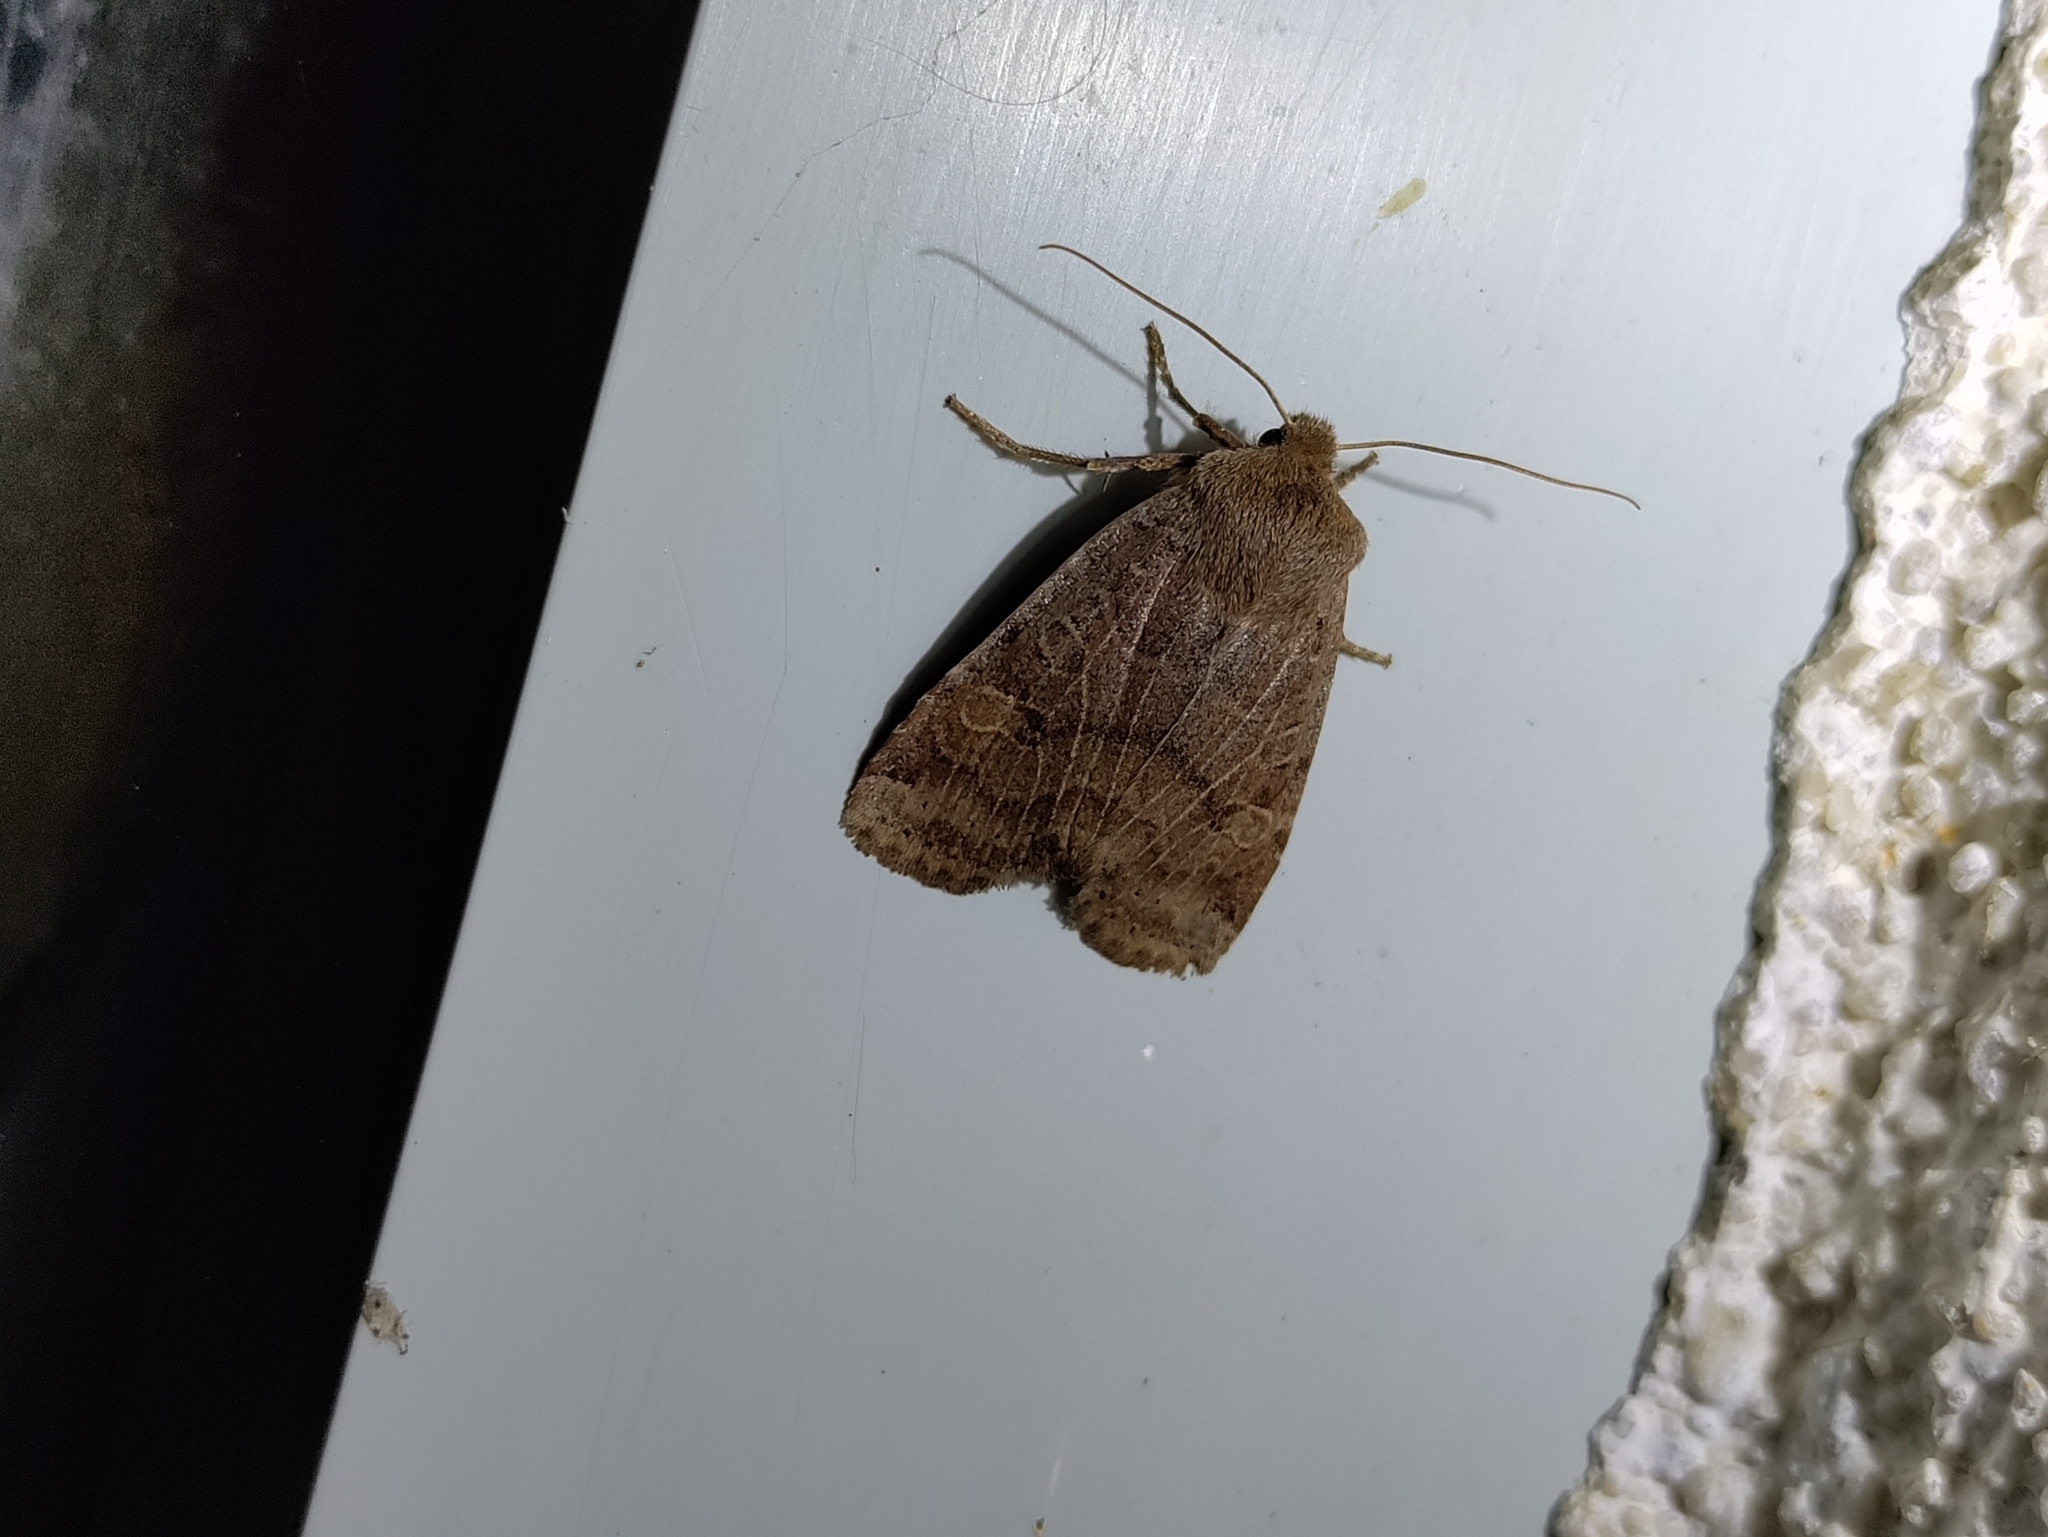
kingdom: Animalia
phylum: Arthropoda
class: Insecta
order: Lepidoptera
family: Noctuidae
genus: Conistra
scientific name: Conistra vaccinii
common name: Chestnut
